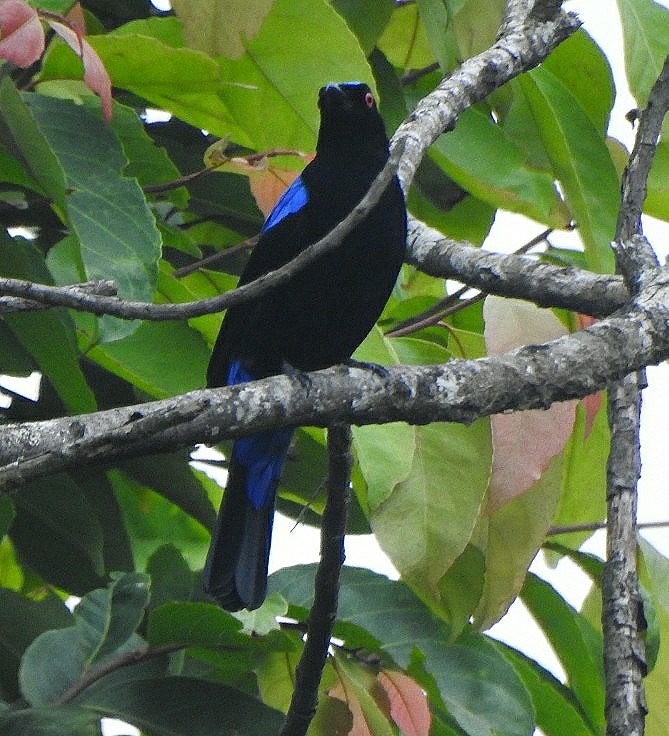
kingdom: Animalia
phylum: Chordata
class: Aves
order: Passeriformes
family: Irenidae
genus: Irena
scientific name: Irena puella
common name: Asian fairy-bluebird
